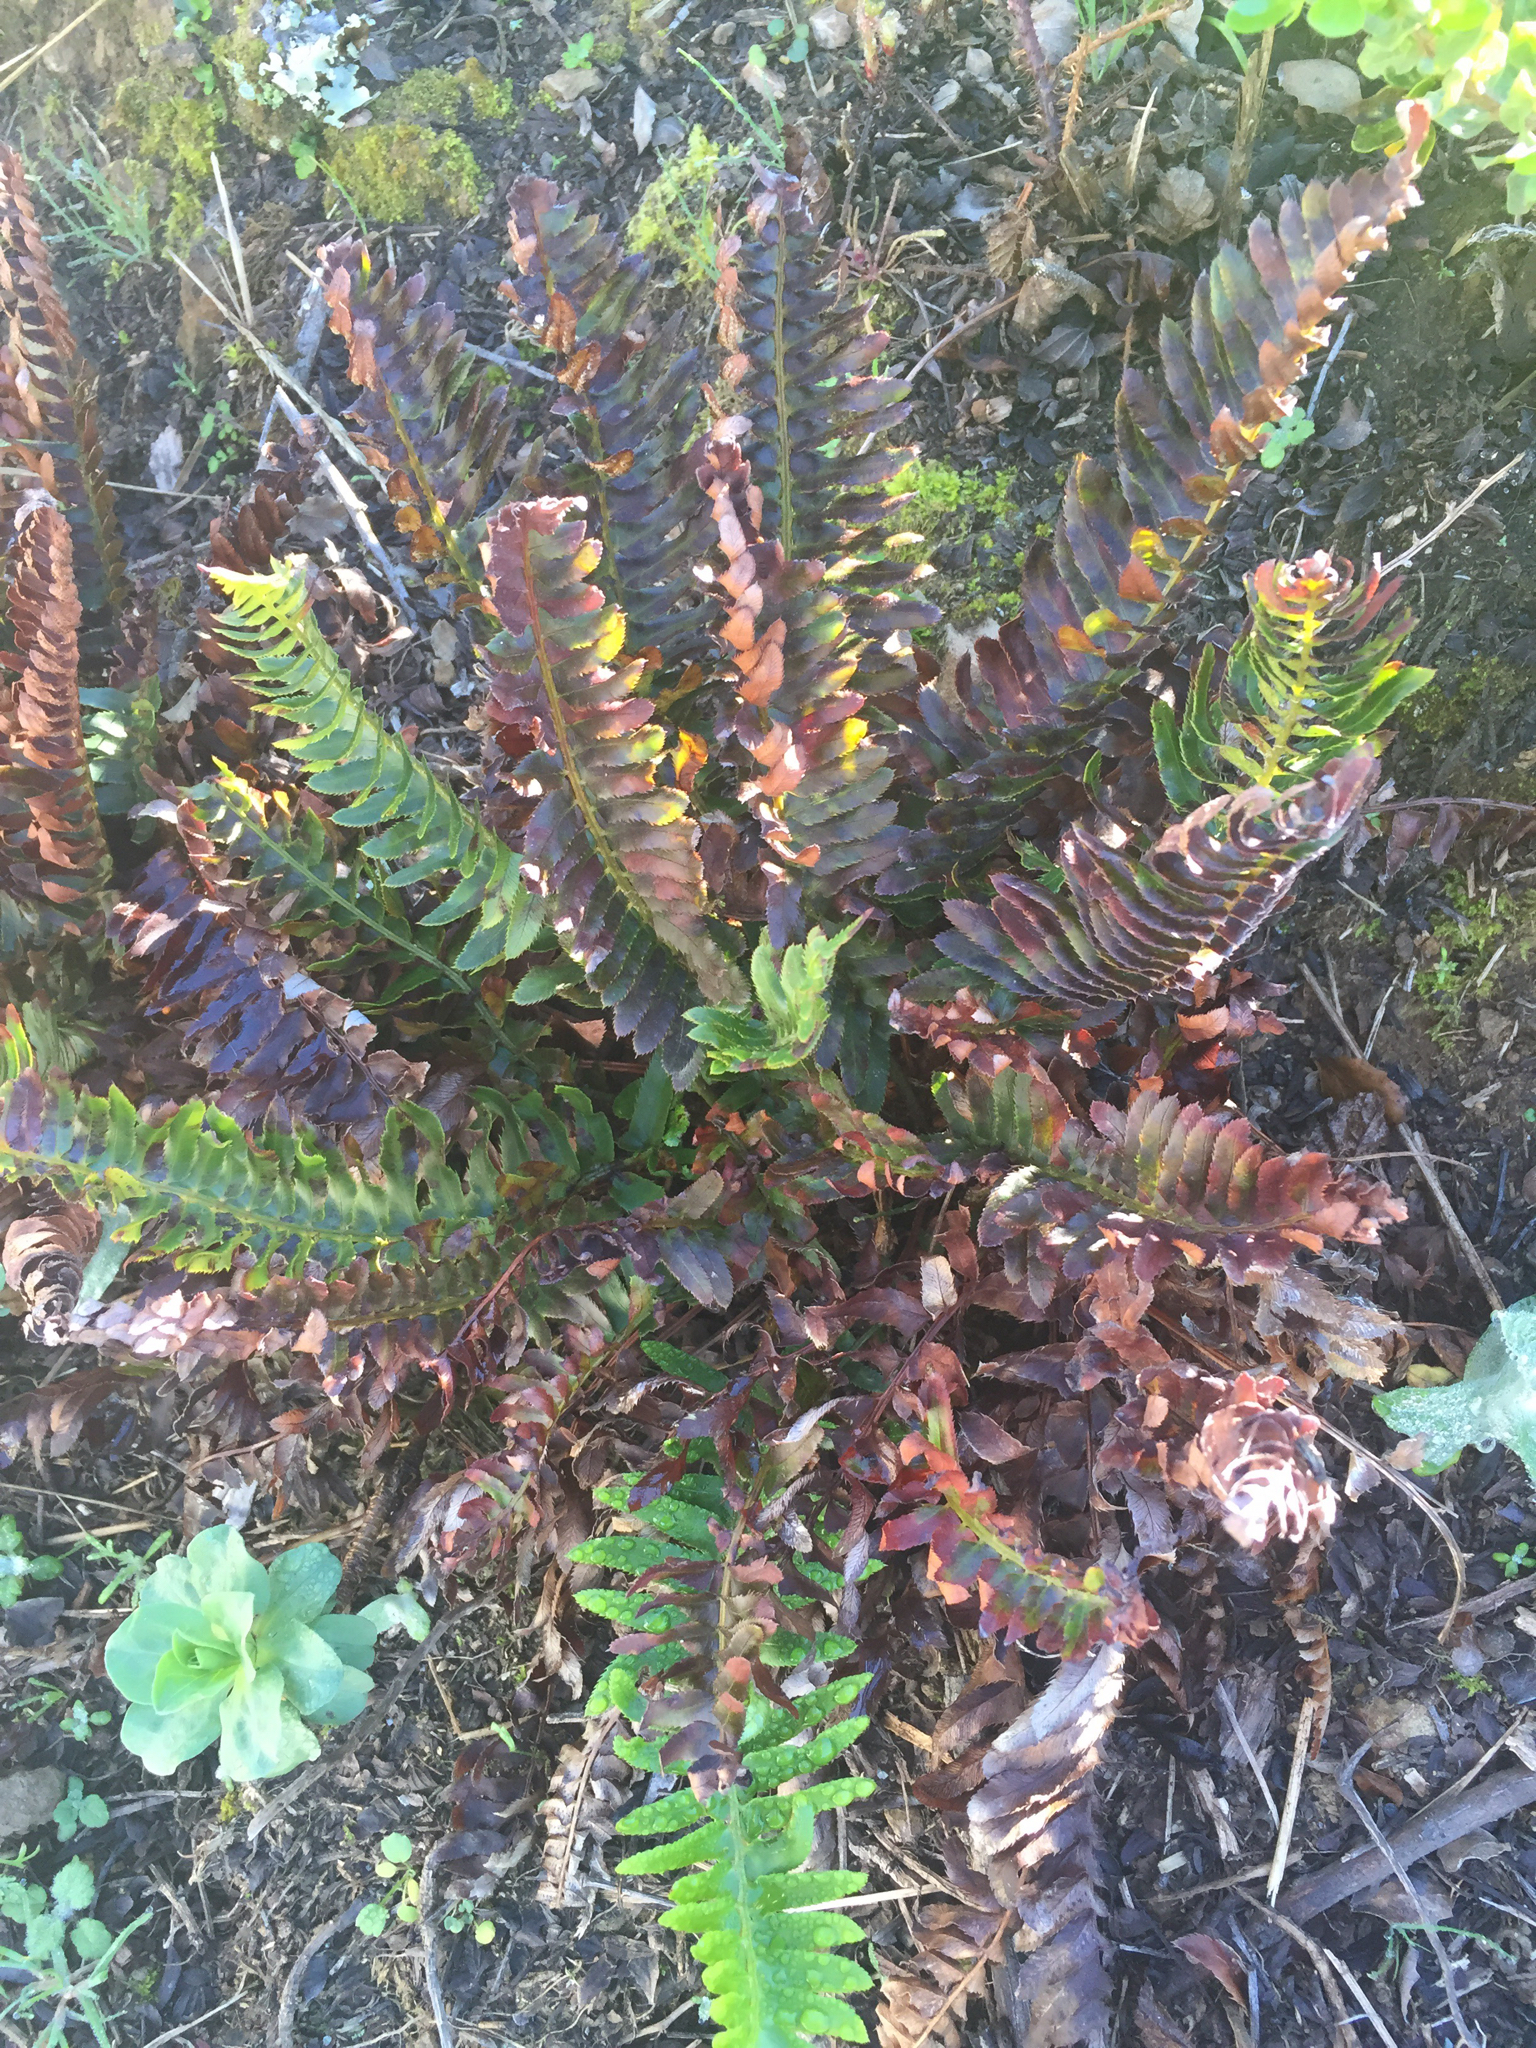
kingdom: Plantae
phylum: Tracheophyta
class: Polypodiopsida
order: Polypodiales
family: Dryopteridaceae
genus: Polystichum
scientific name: Polystichum munitum
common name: Western sword-fern
